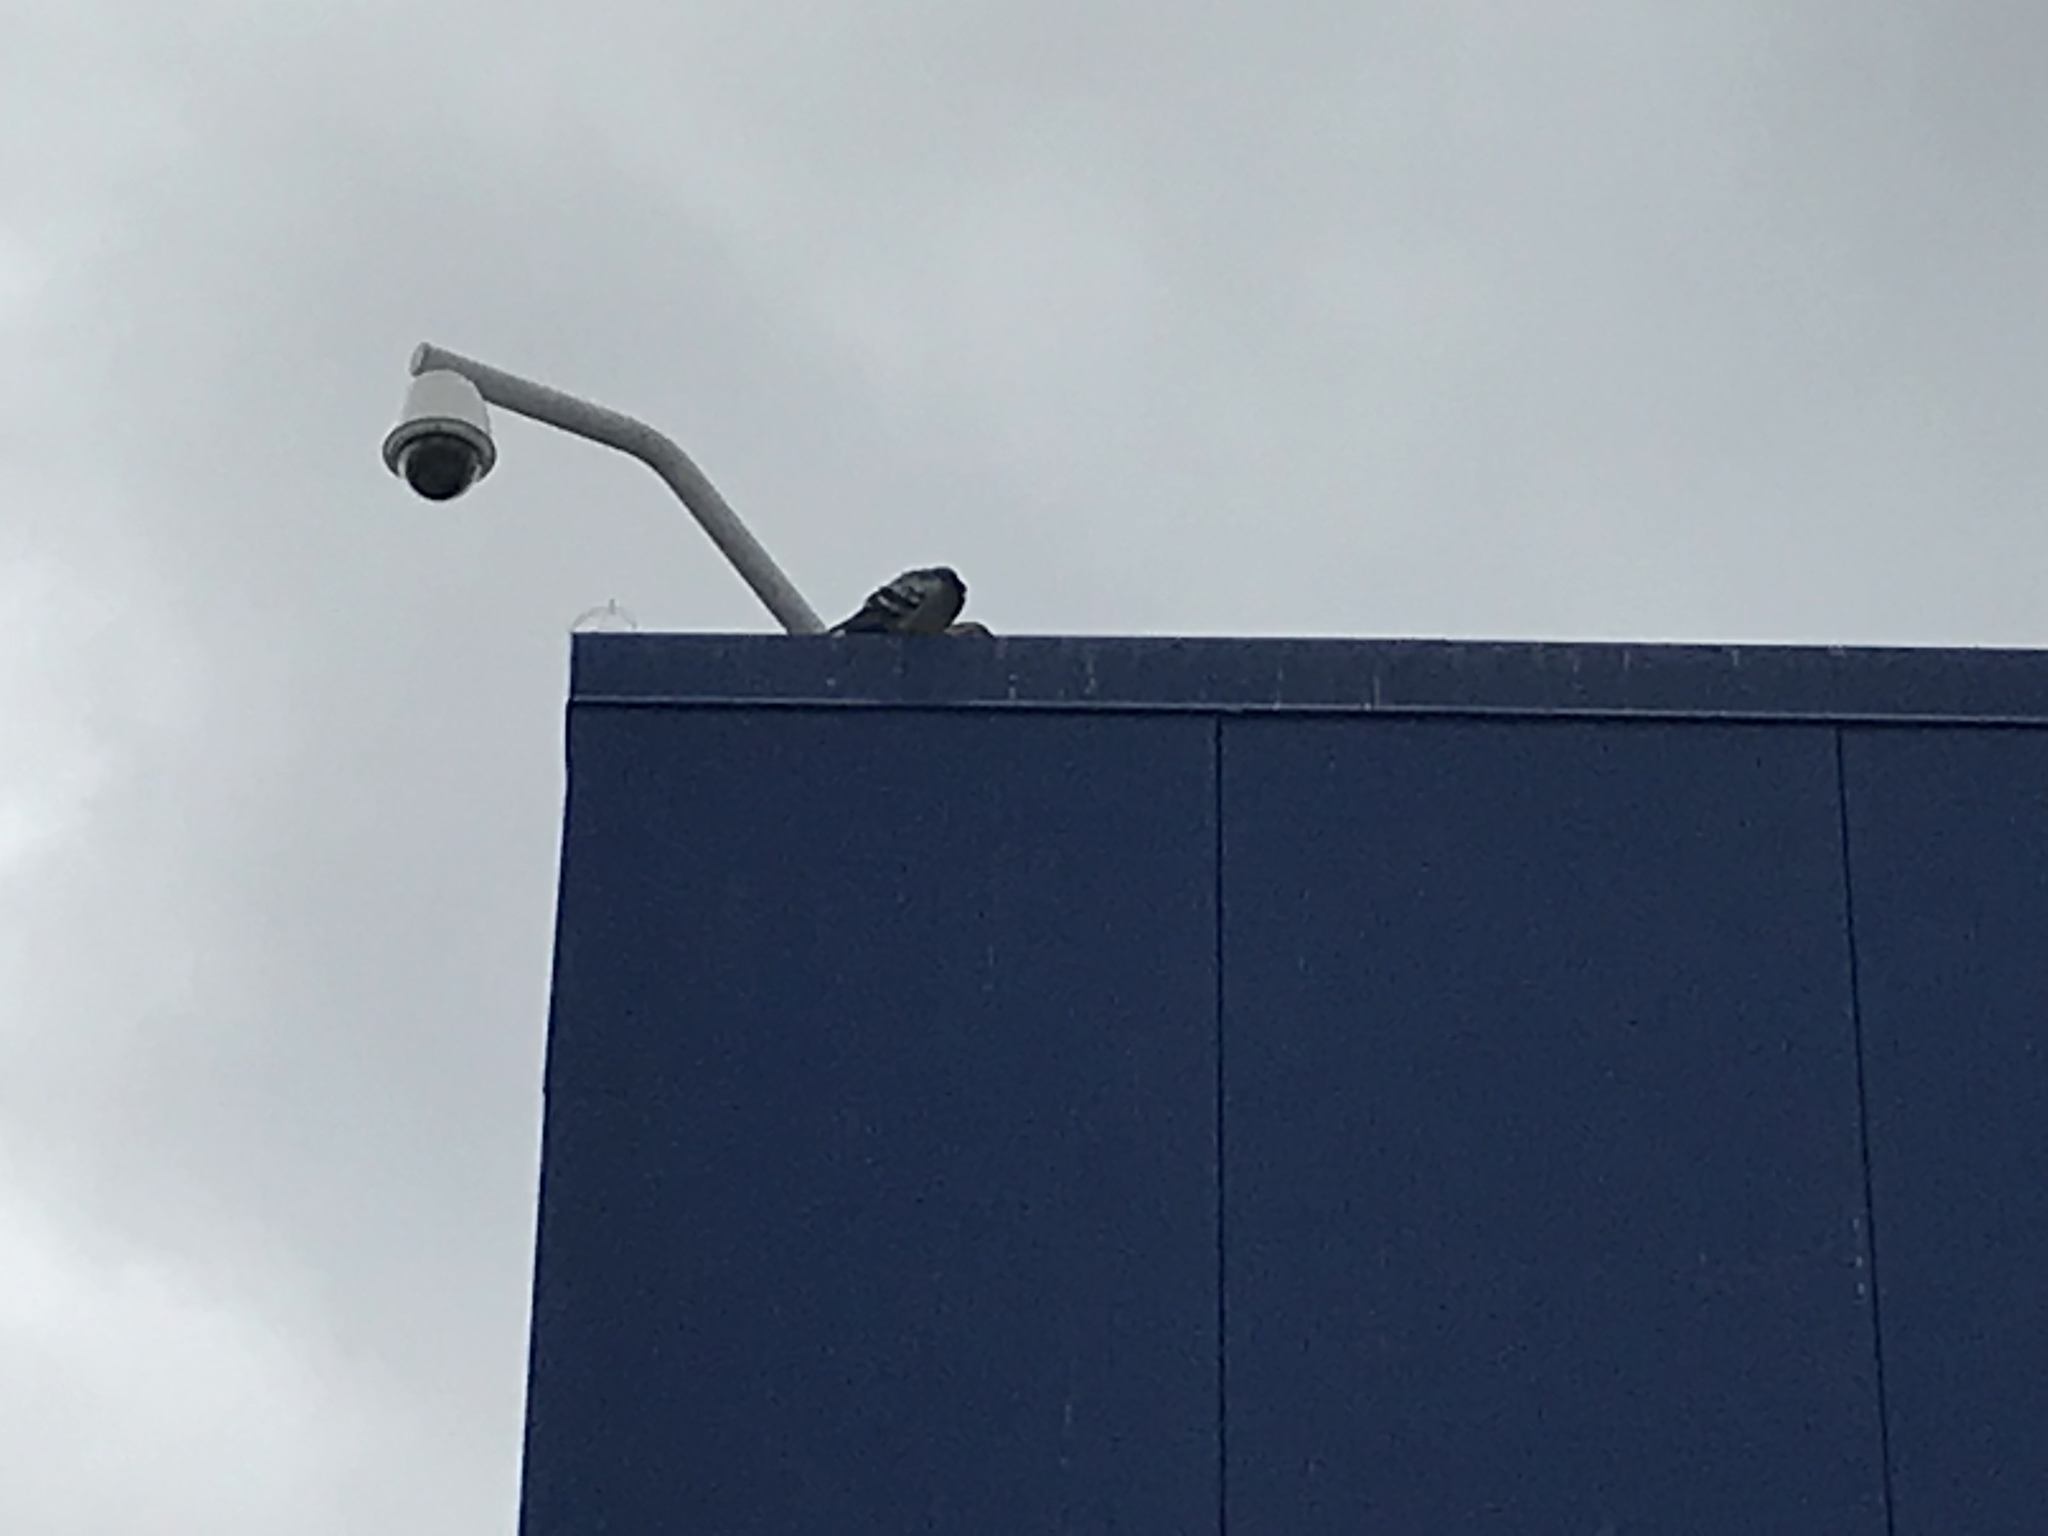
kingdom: Animalia
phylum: Chordata
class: Aves
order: Columbiformes
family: Columbidae
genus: Columba
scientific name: Columba livia
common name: Rock pigeon
